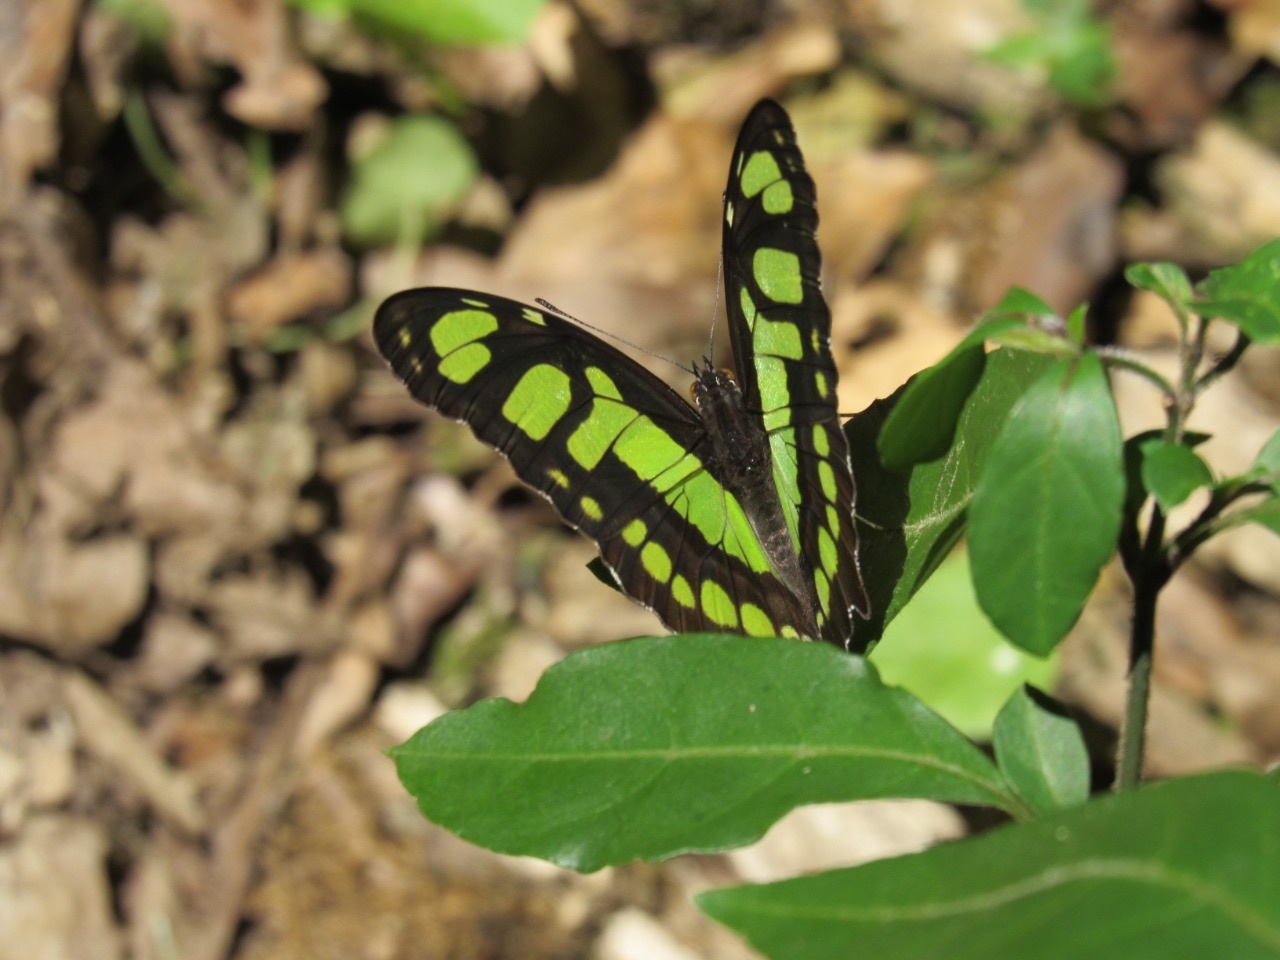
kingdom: Animalia
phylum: Arthropoda
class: Insecta
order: Lepidoptera
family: Nymphalidae
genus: Siproeta
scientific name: Siproeta stelenes
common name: Malachite
